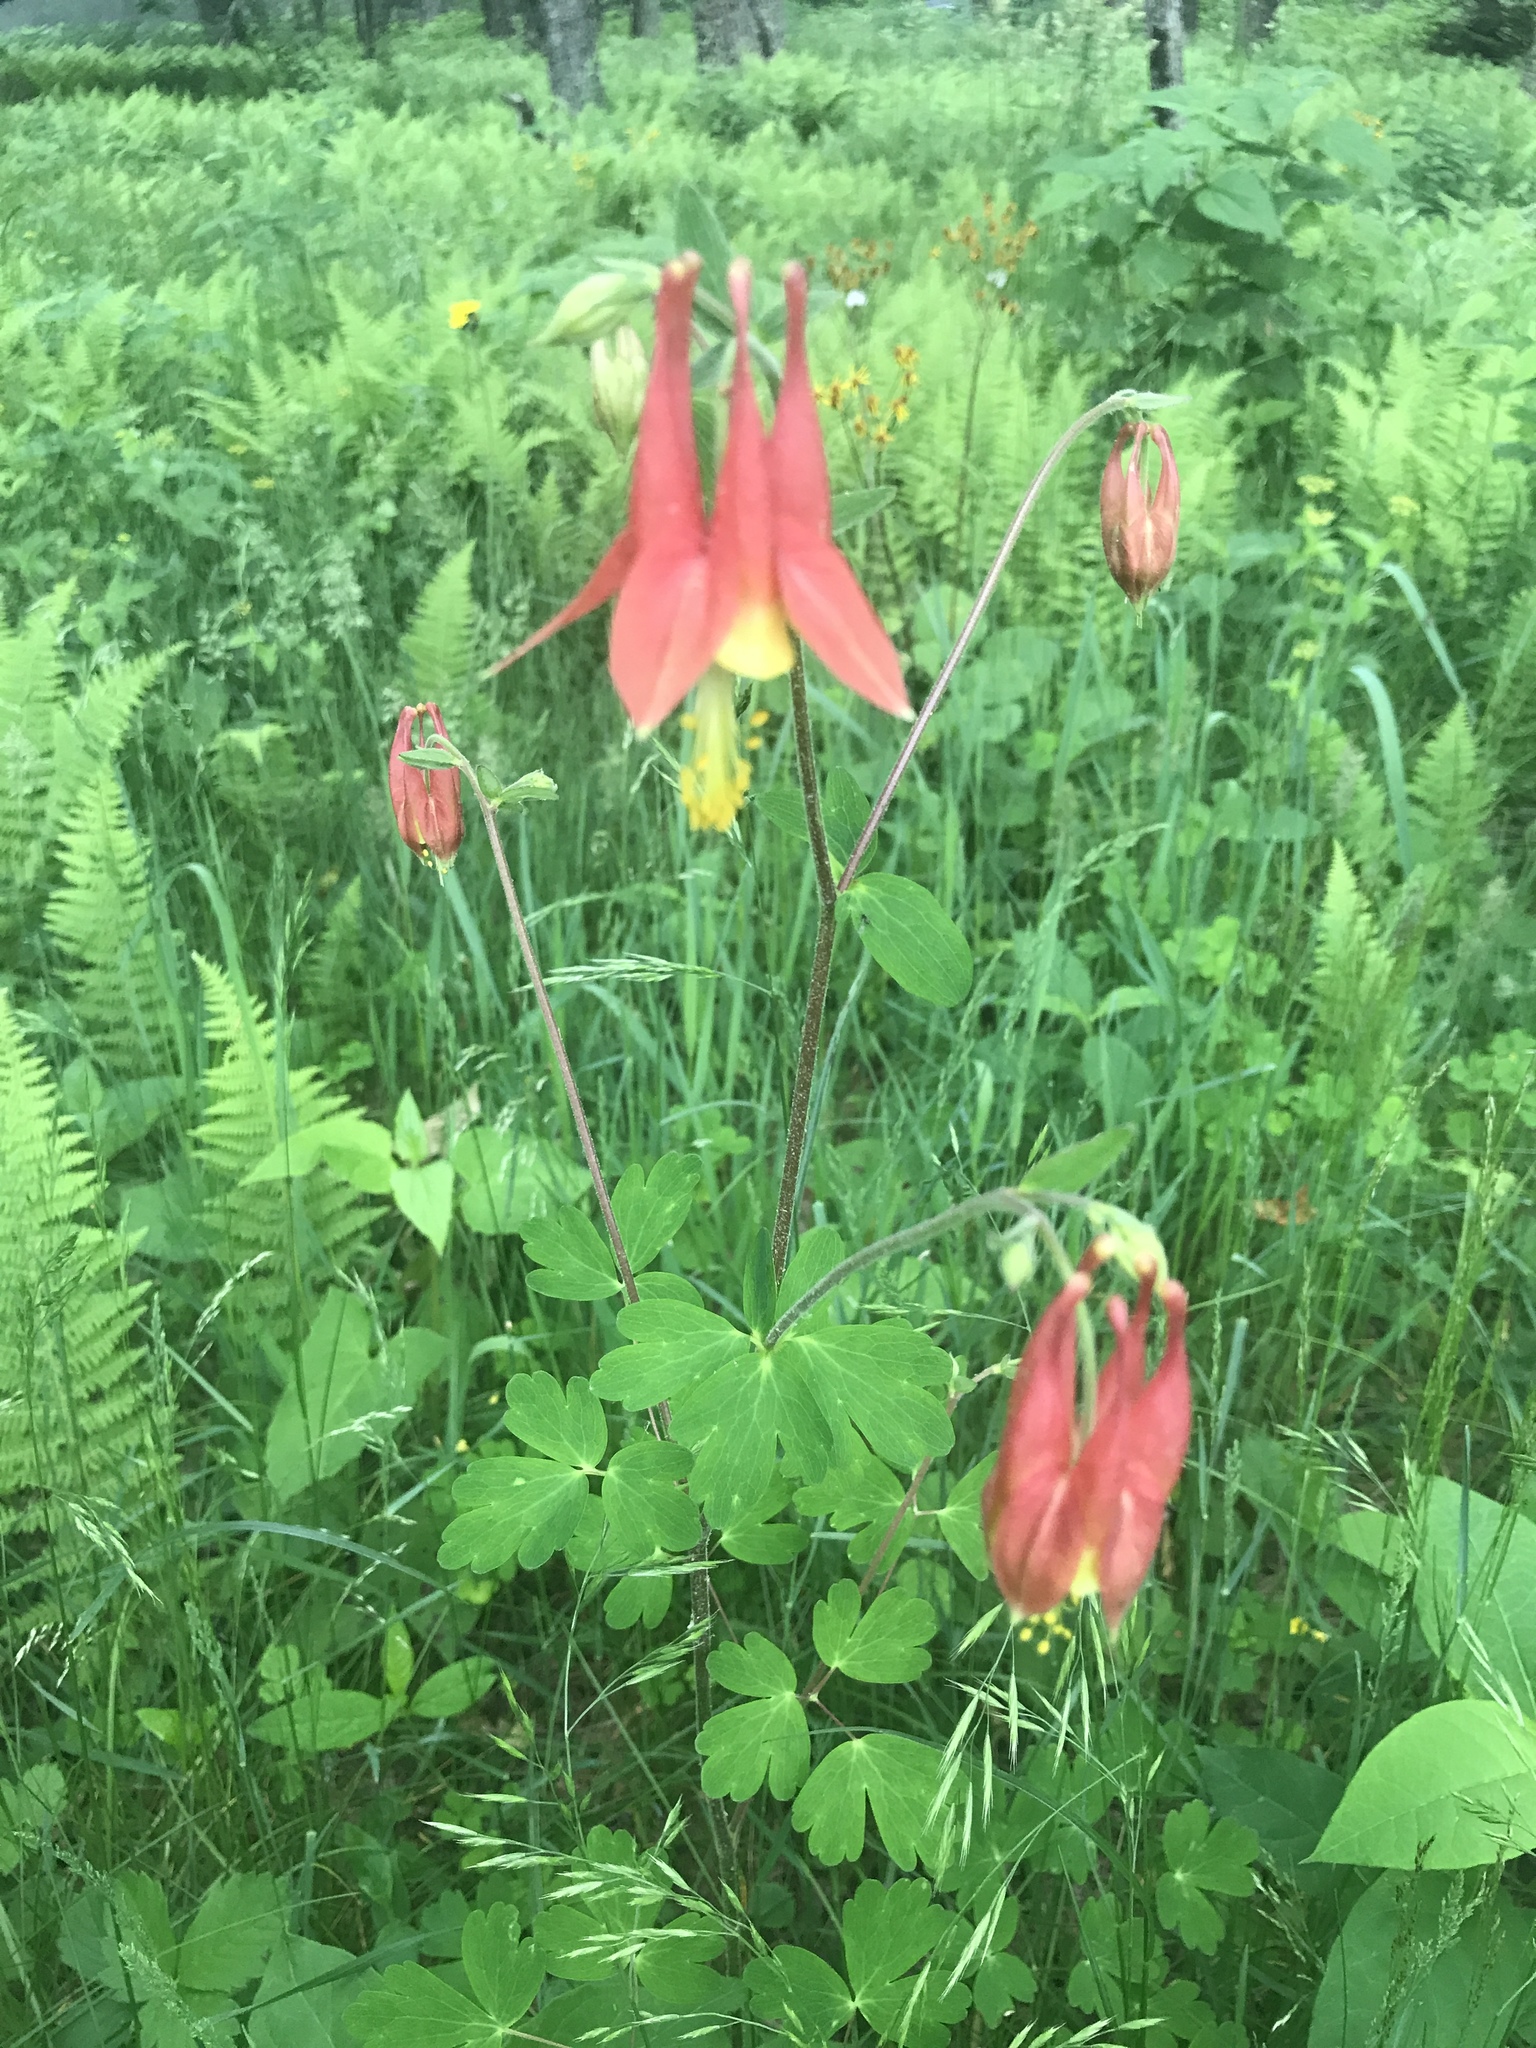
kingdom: Plantae
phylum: Tracheophyta
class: Magnoliopsida
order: Ranunculales
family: Ranunculaceae
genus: Aquilegia
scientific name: Aquilegia canadensis
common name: American columbine
